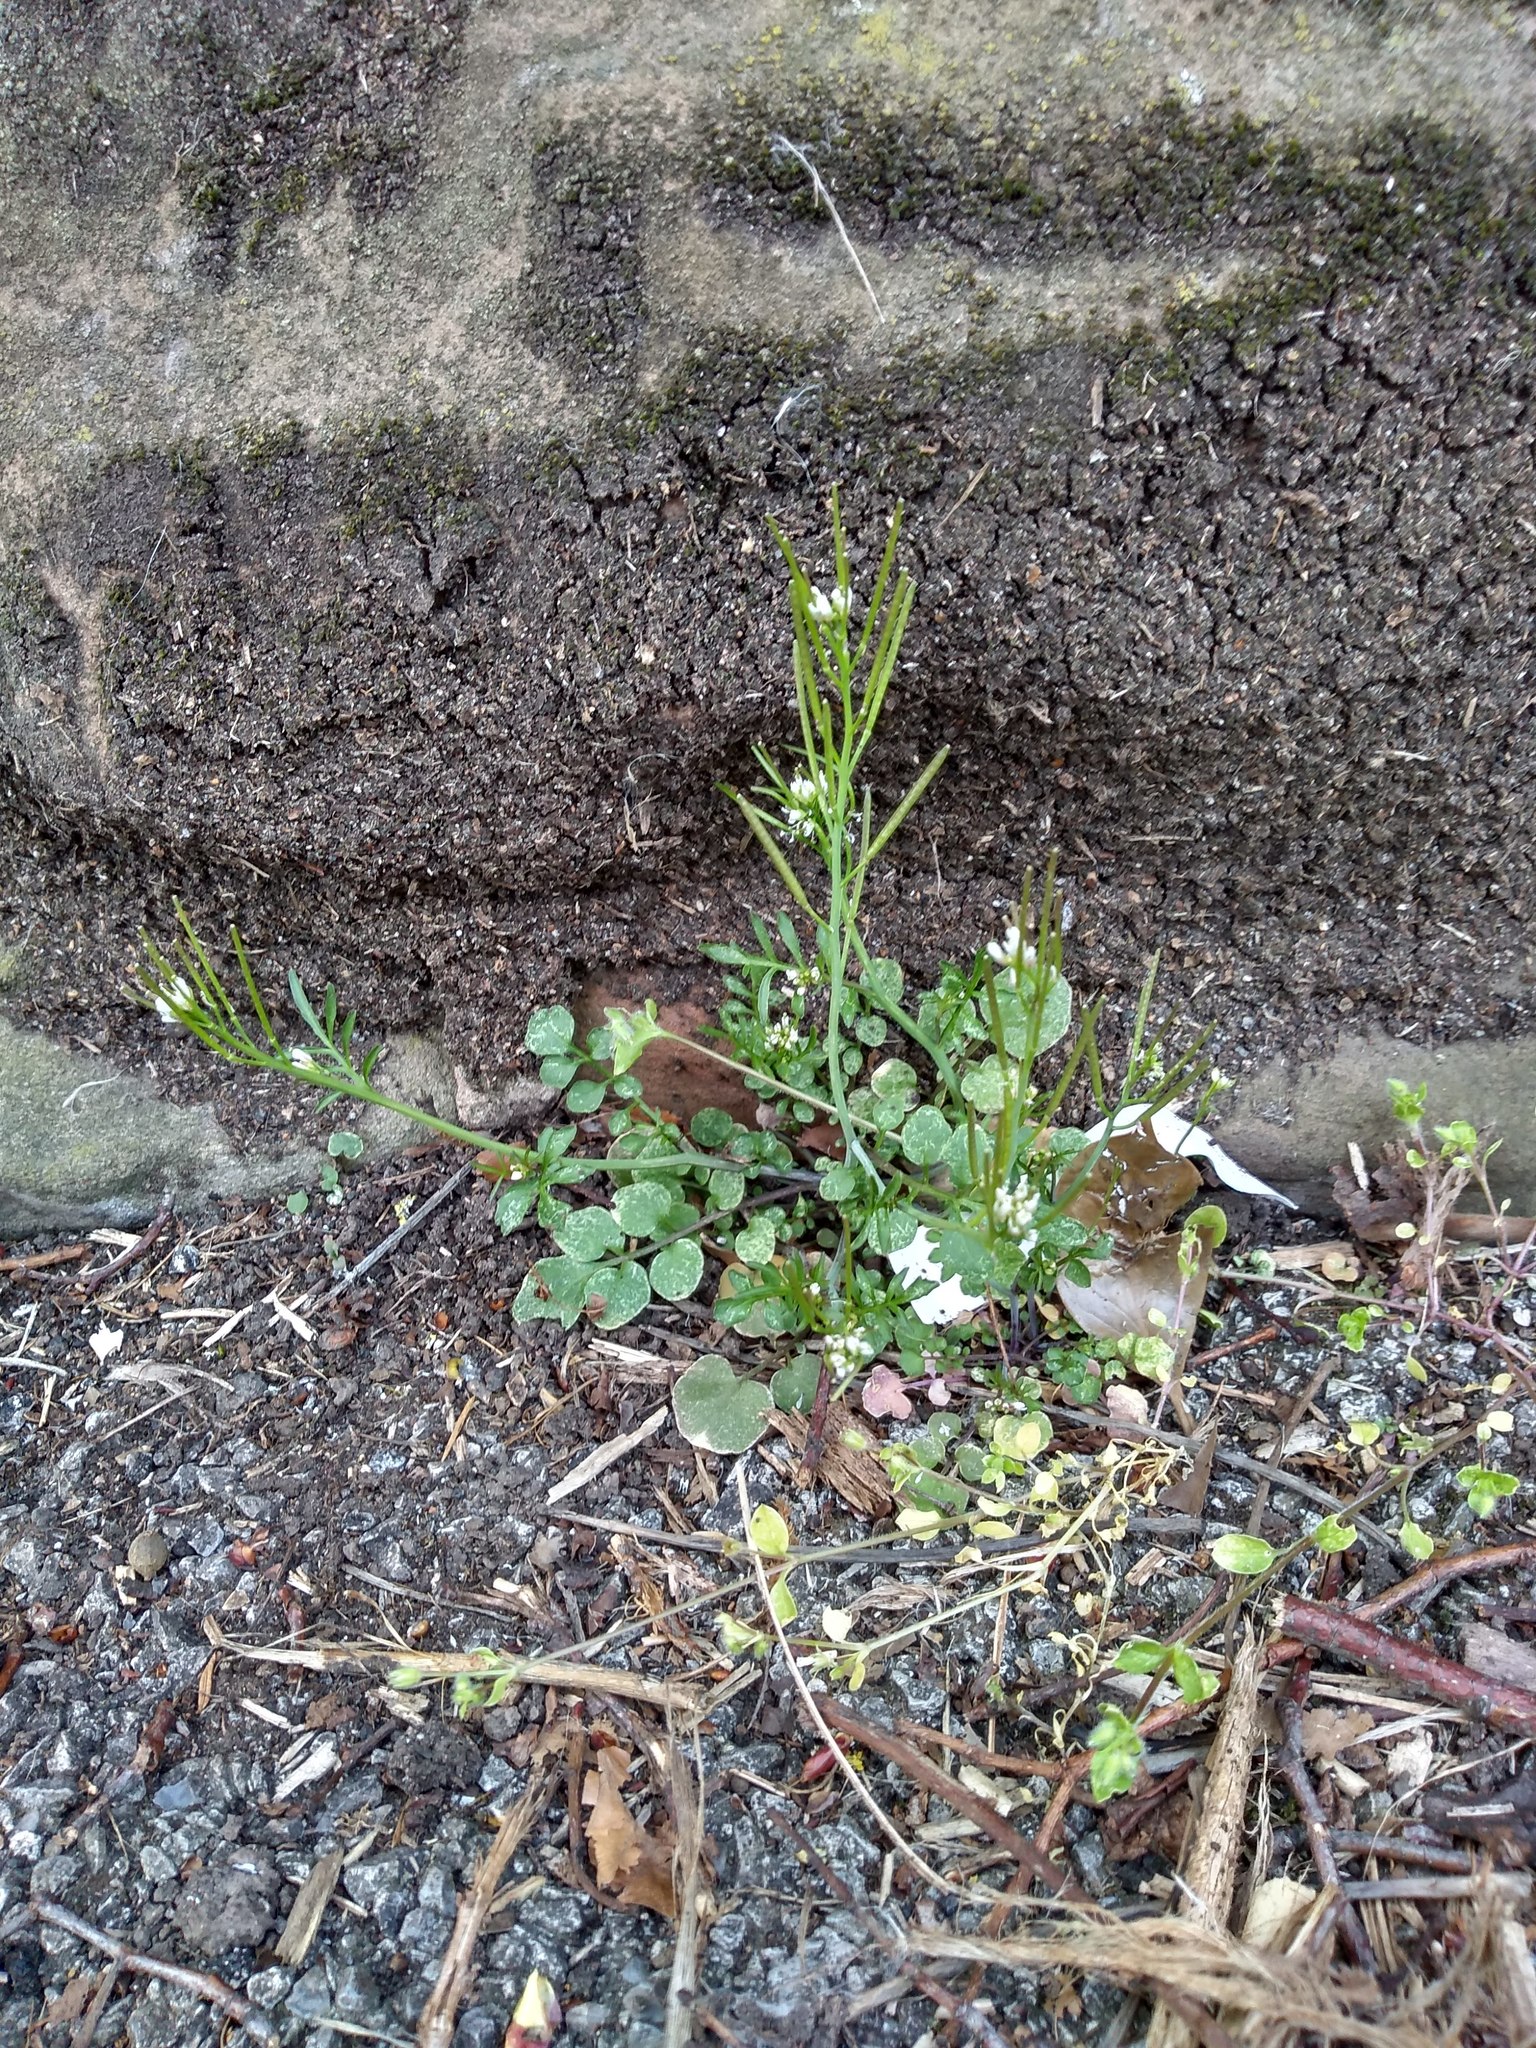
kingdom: Plantae
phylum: Tracheophyta
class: Magnoliopsida
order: Brassicales
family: Brassicaceae
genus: Cardamine
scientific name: Cardamine hirsuta
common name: Hairy bittercress
